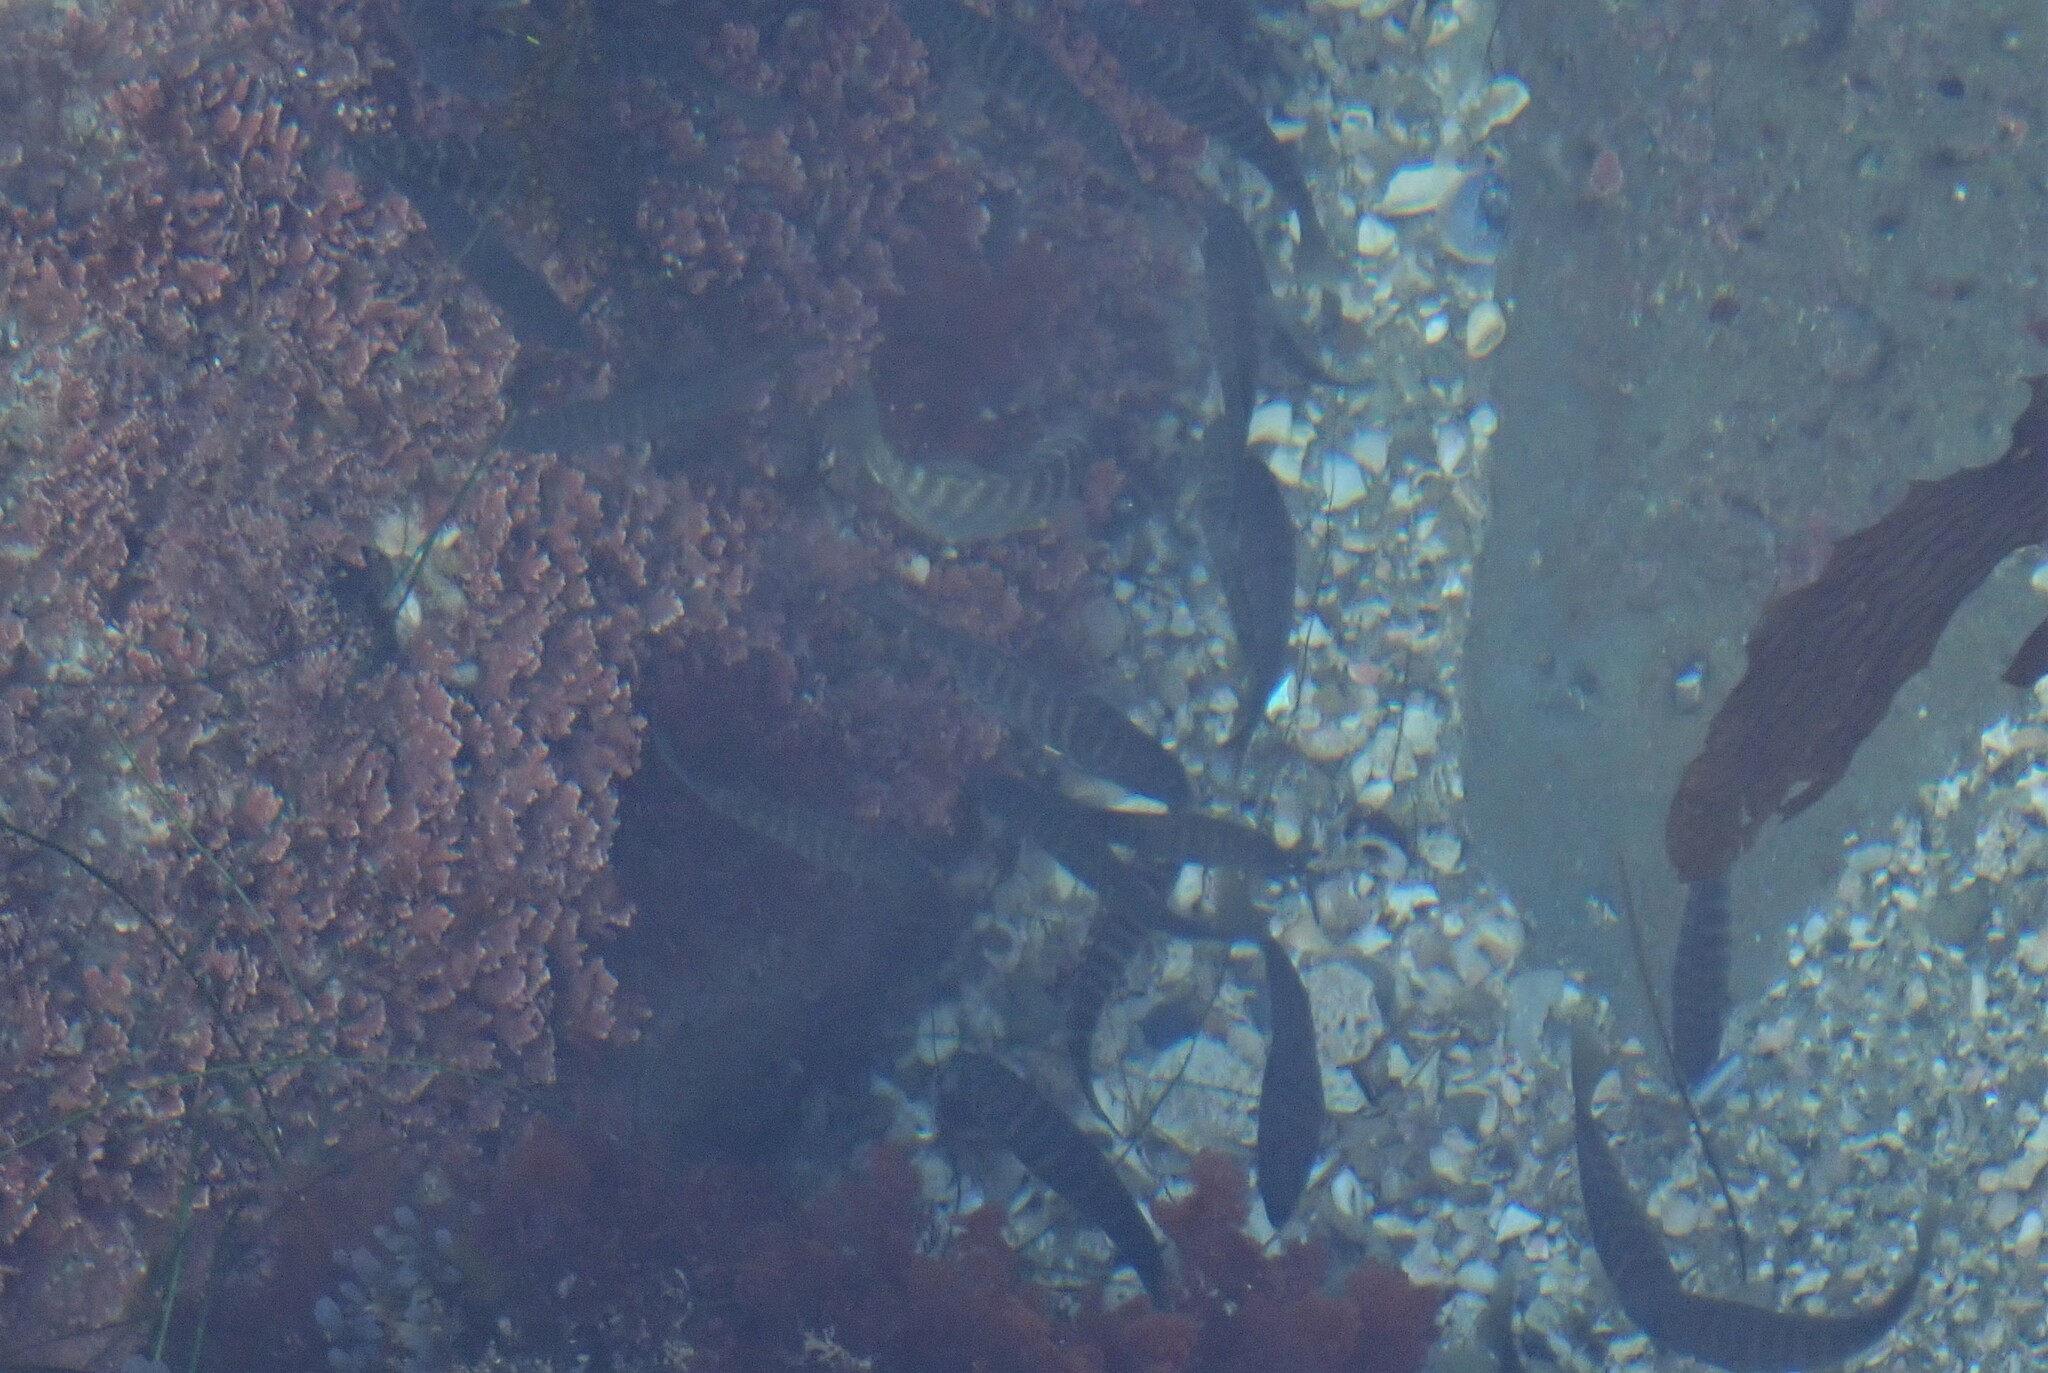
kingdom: Animalia
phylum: Chordata
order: Perciformes
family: Kyphosidae
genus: Kyphosus
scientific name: Kyphosus azureus
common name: Perch
